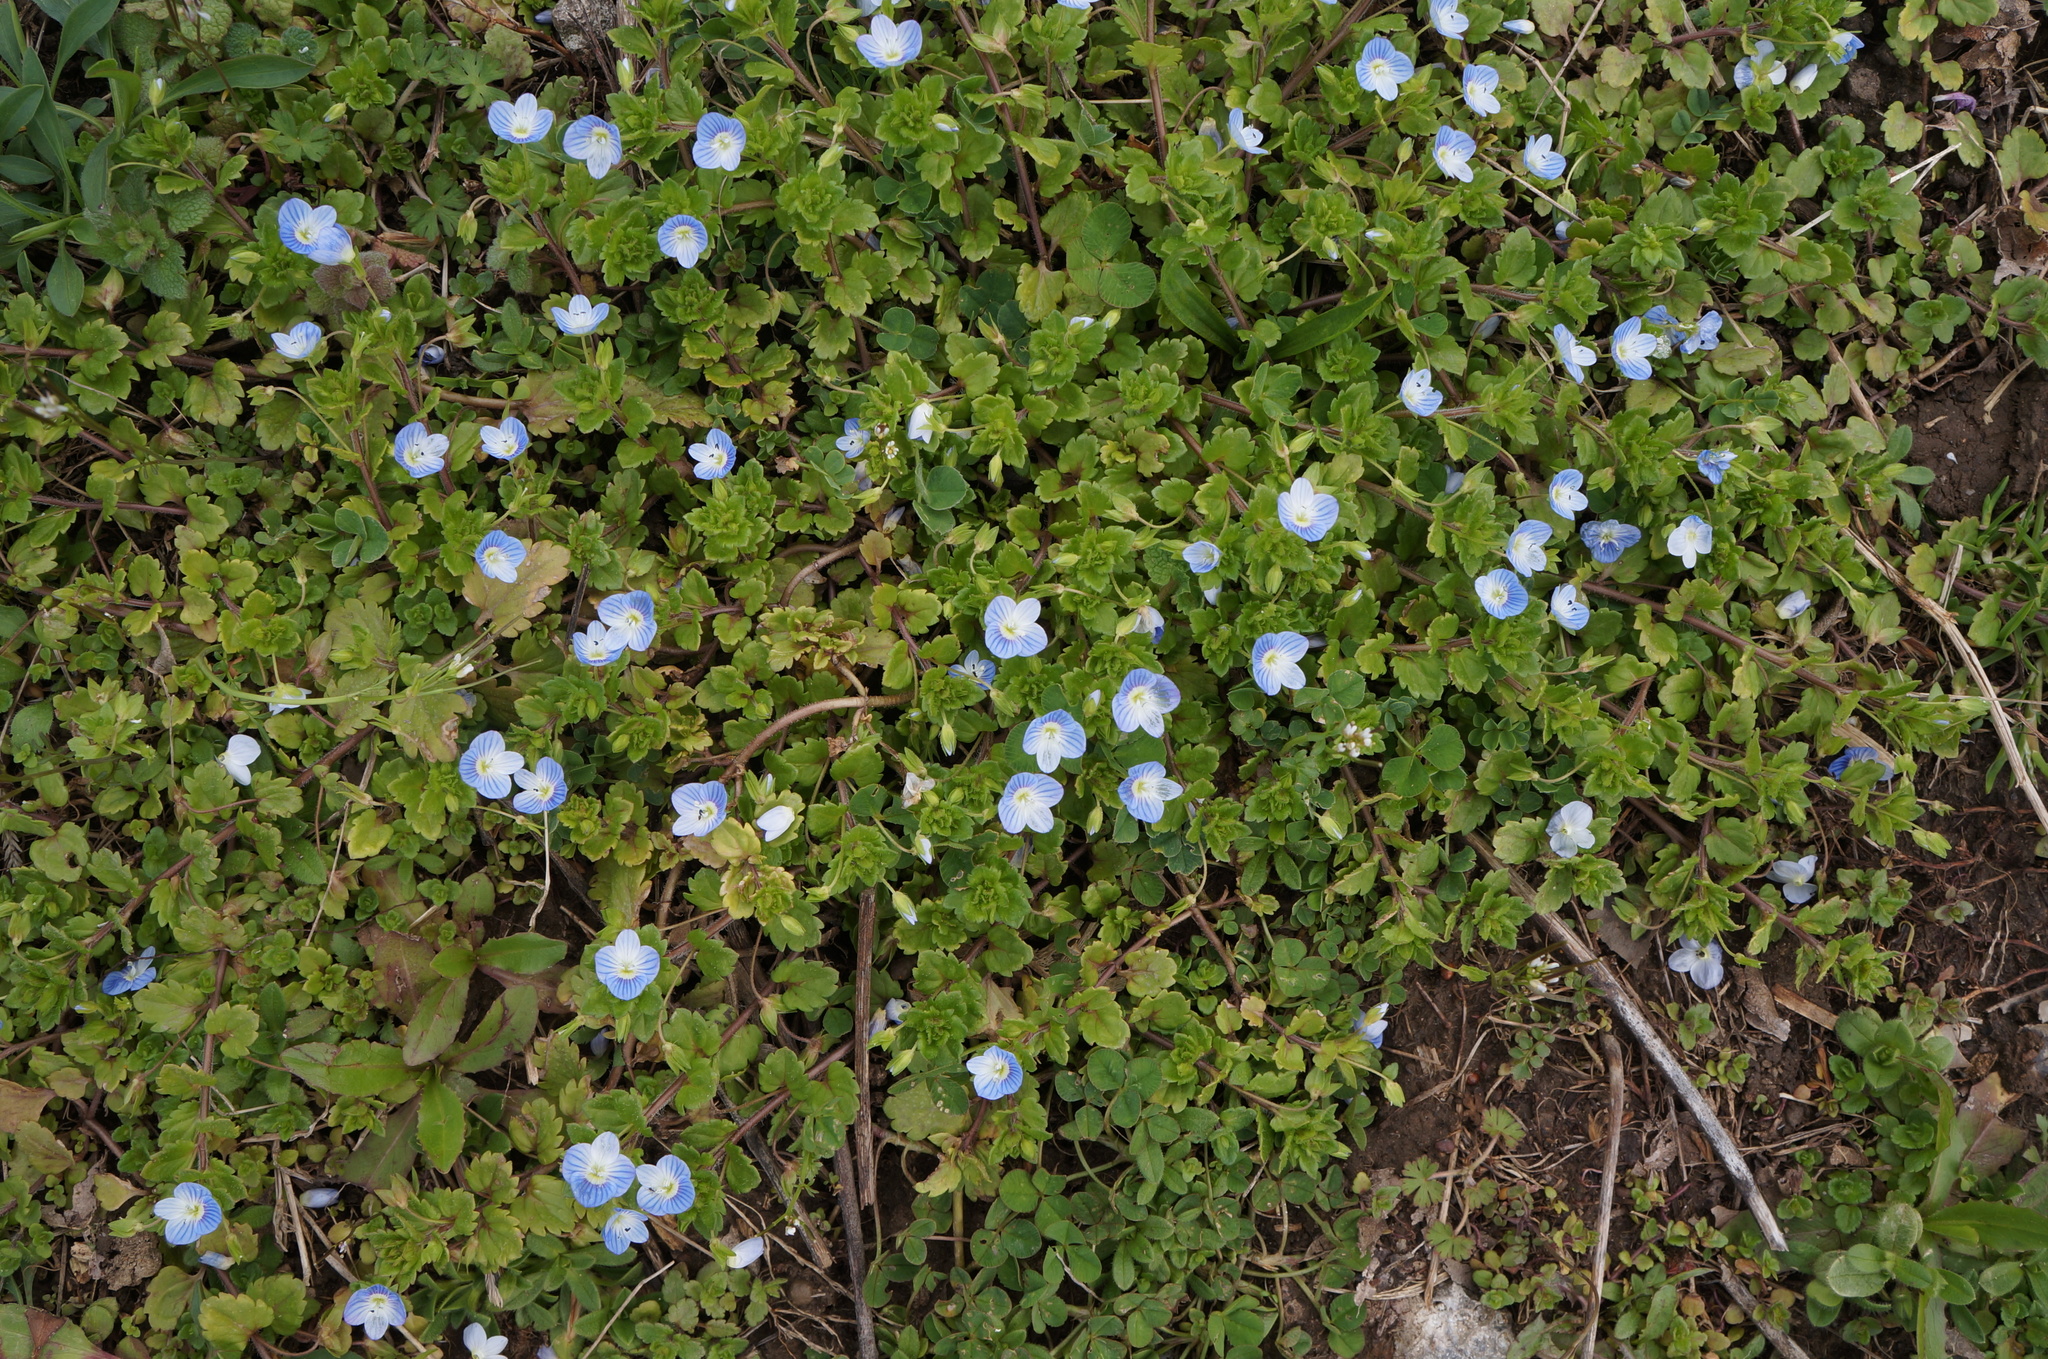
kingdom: Plantae
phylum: Tracheophyta
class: Magnoliopsida
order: Lamiales
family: Plantaginaceae
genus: Veronica
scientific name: Veronica persica
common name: Common field-speedwell
